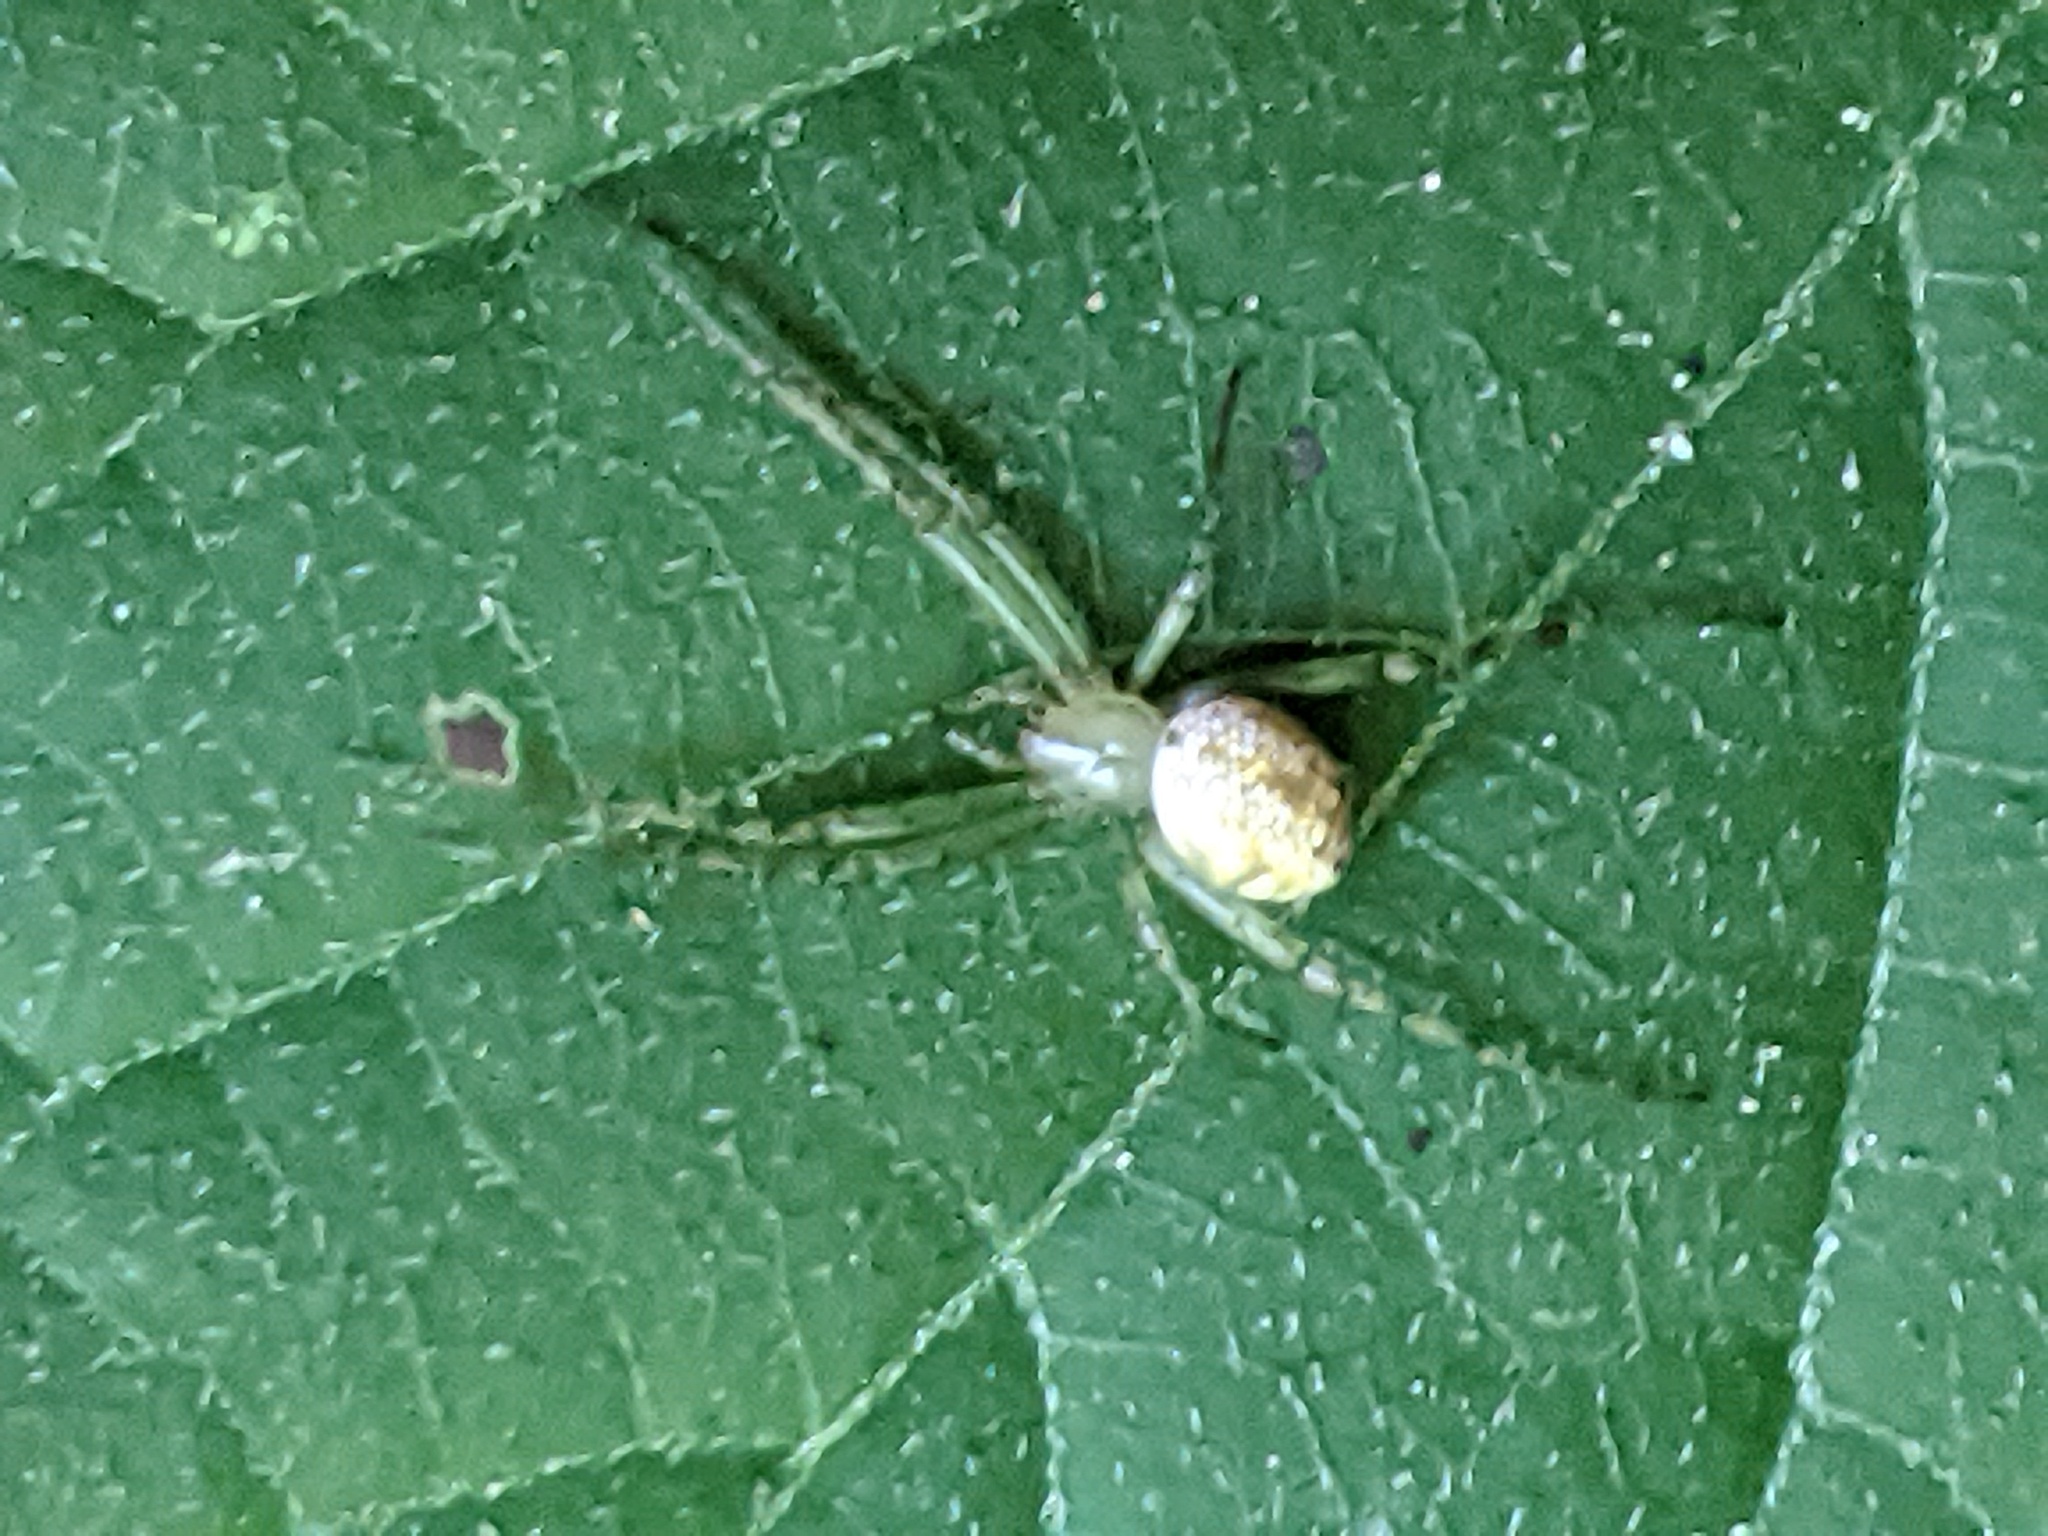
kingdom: Animalia
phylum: Arthropoda
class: Arachnida
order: Araneae
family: Araneidae
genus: Mangora
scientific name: Mangora maculata
